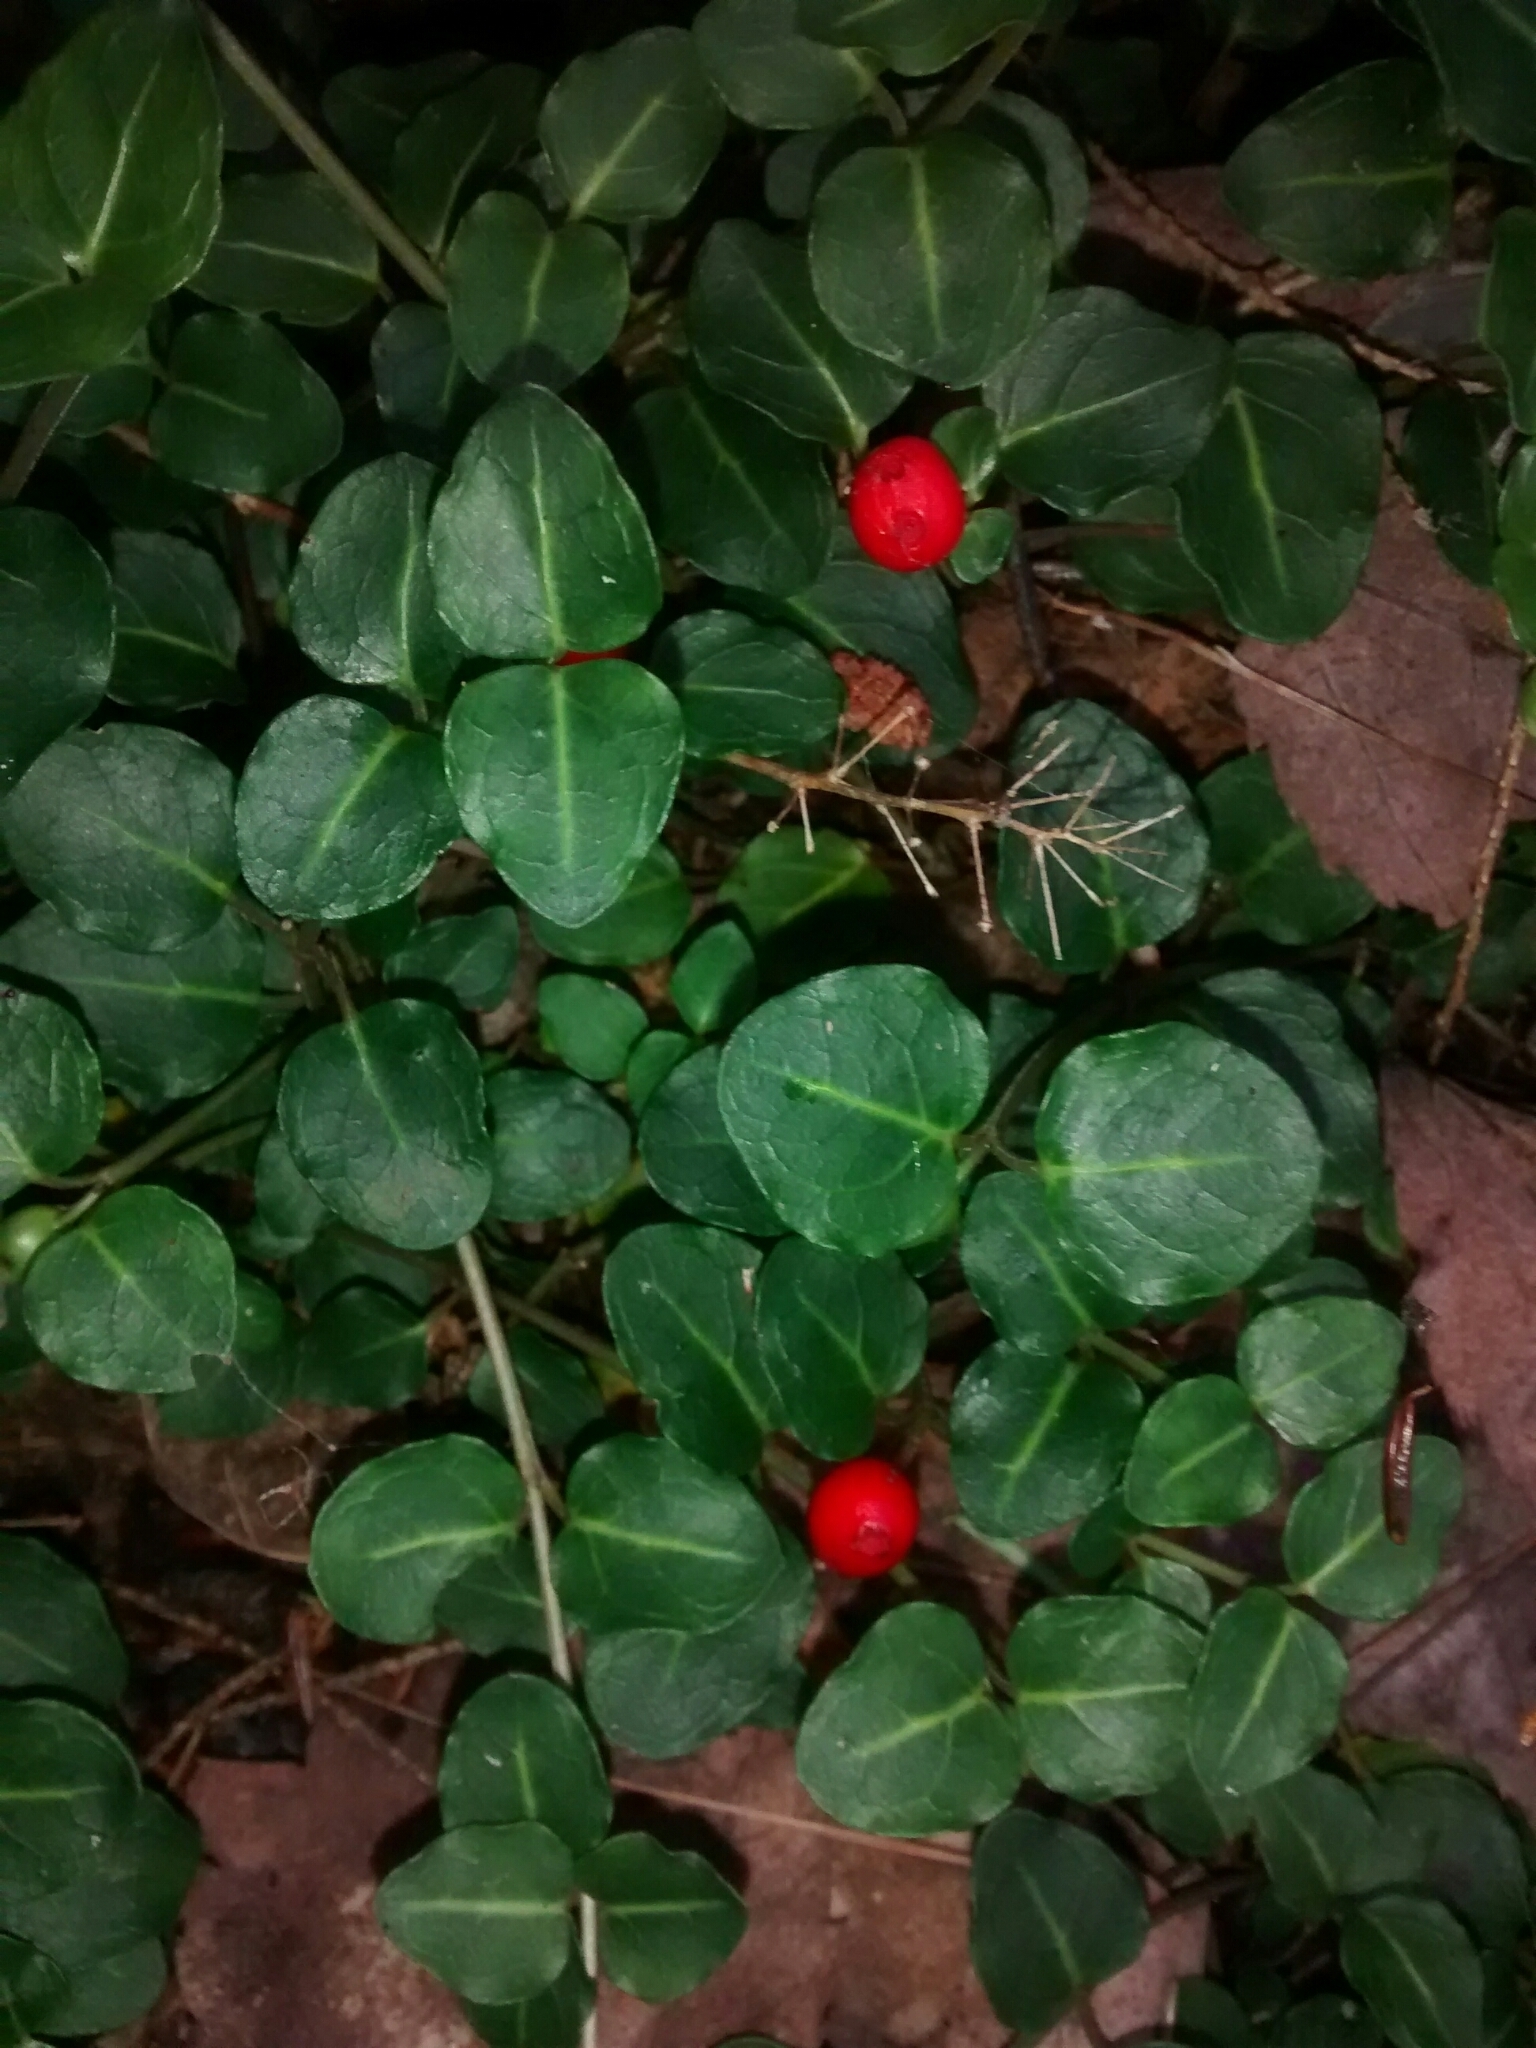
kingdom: Plantae
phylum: Tracheophyta
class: Magnoliopsida
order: Gentianales
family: Rubiaceae
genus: Mitchella
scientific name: Mitchella repens
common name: Partridge-berry
